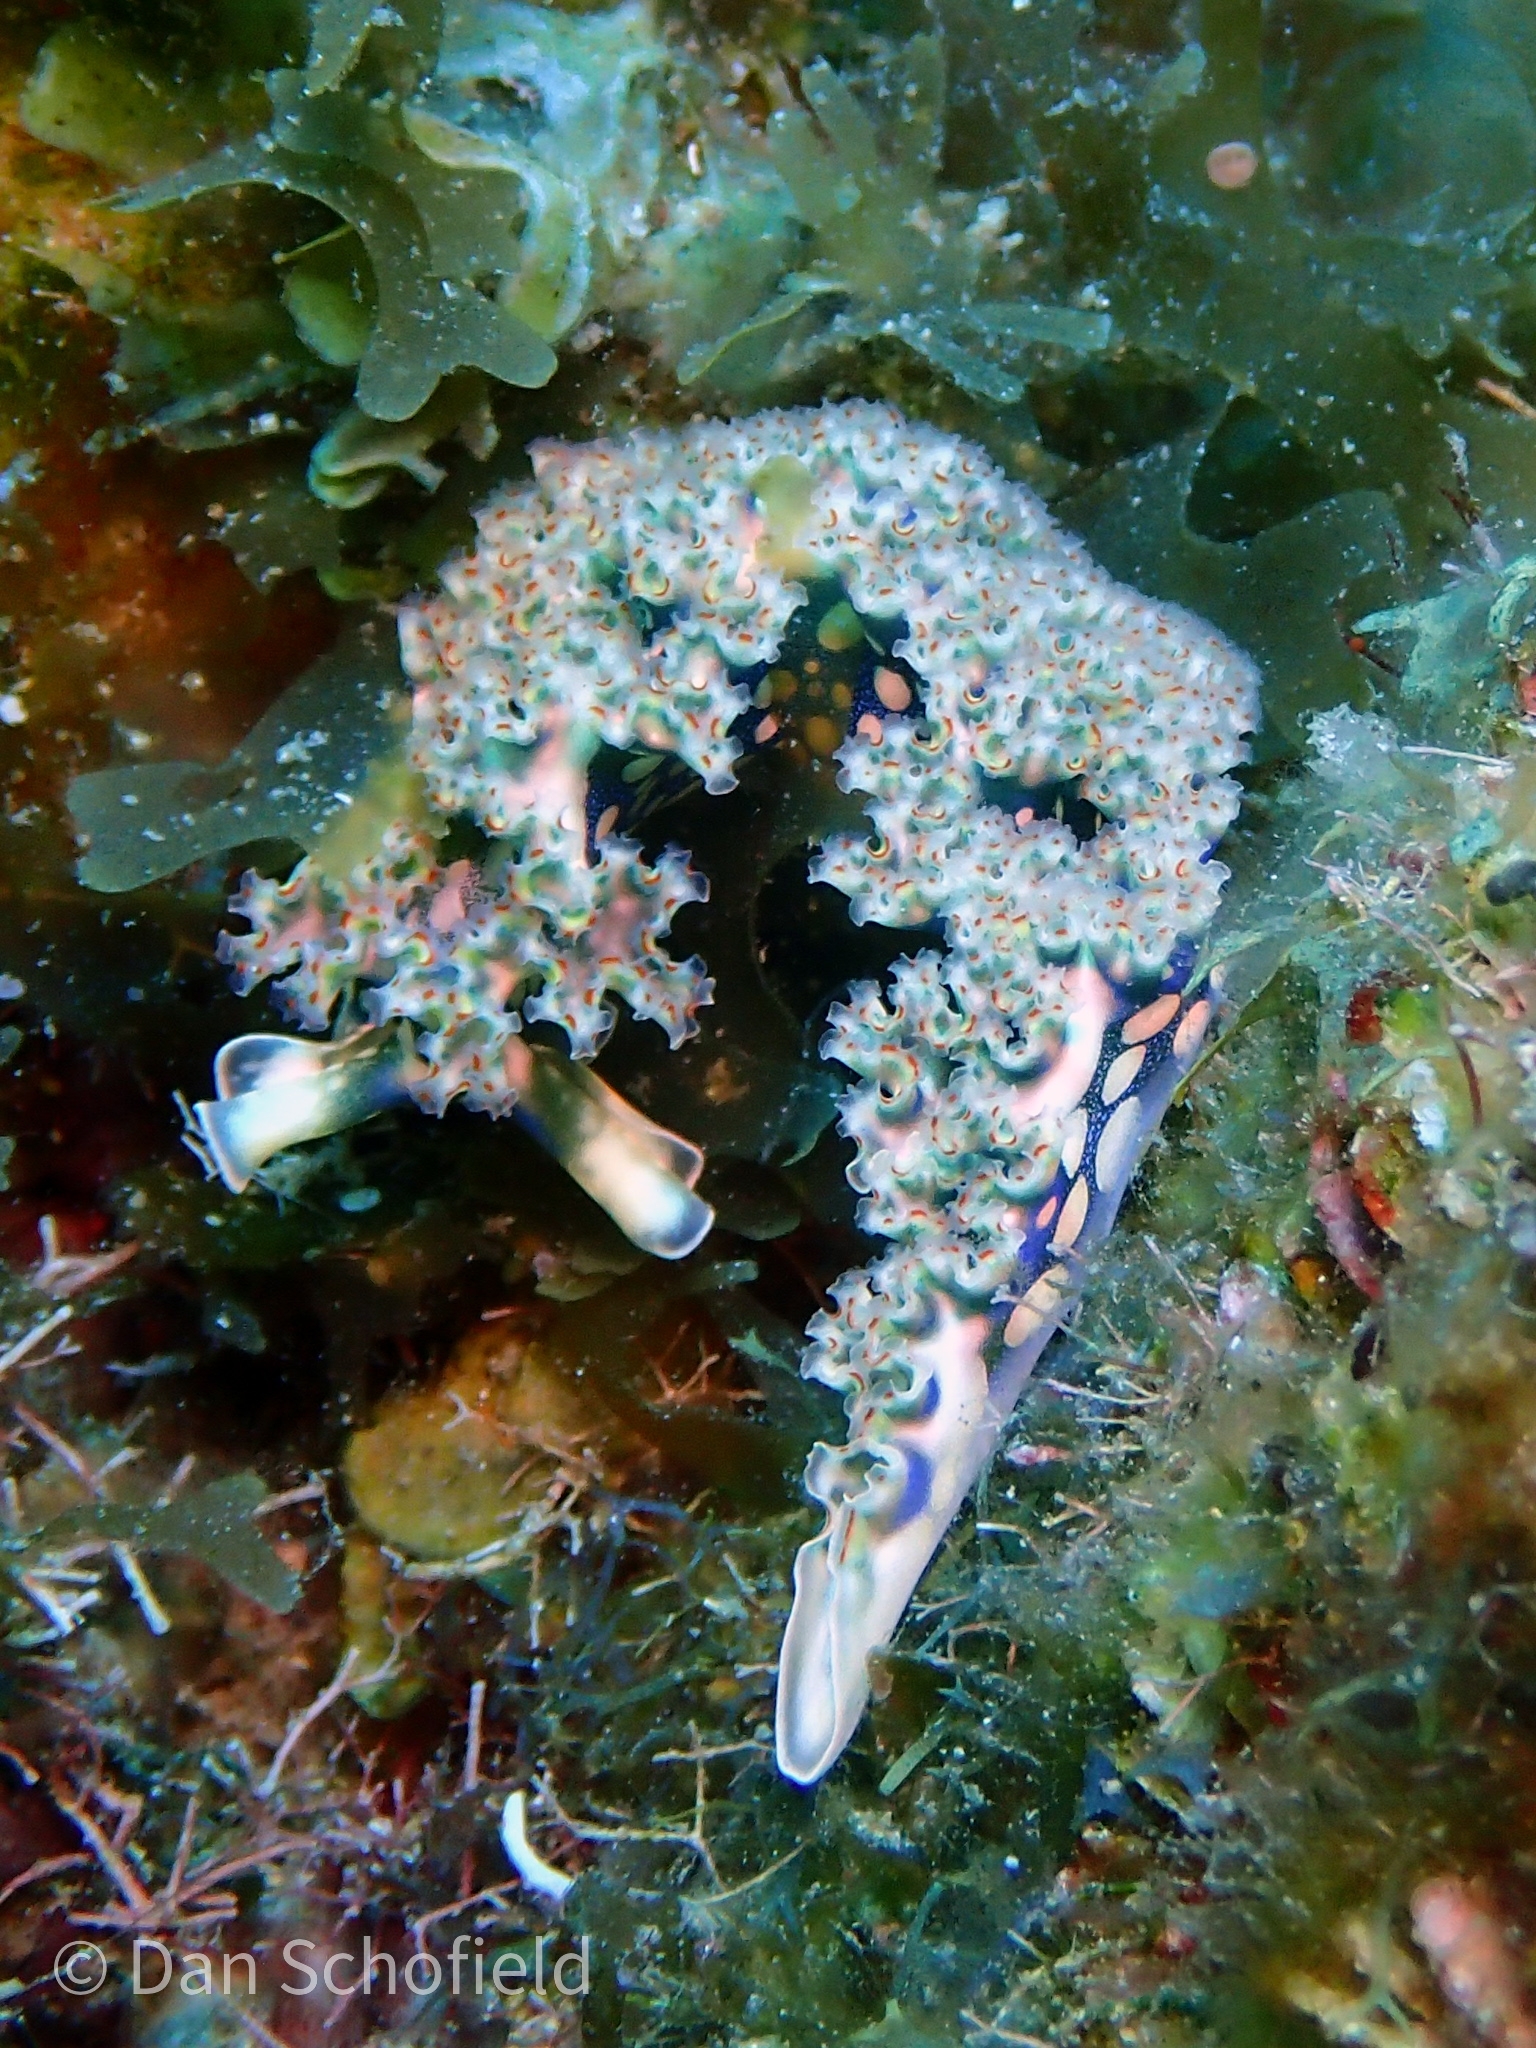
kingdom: Animalia
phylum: Mollusca
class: Gastropoda
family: Plakobranchidae
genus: Elysia
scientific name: Elysia crispata
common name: Lettuce slug
